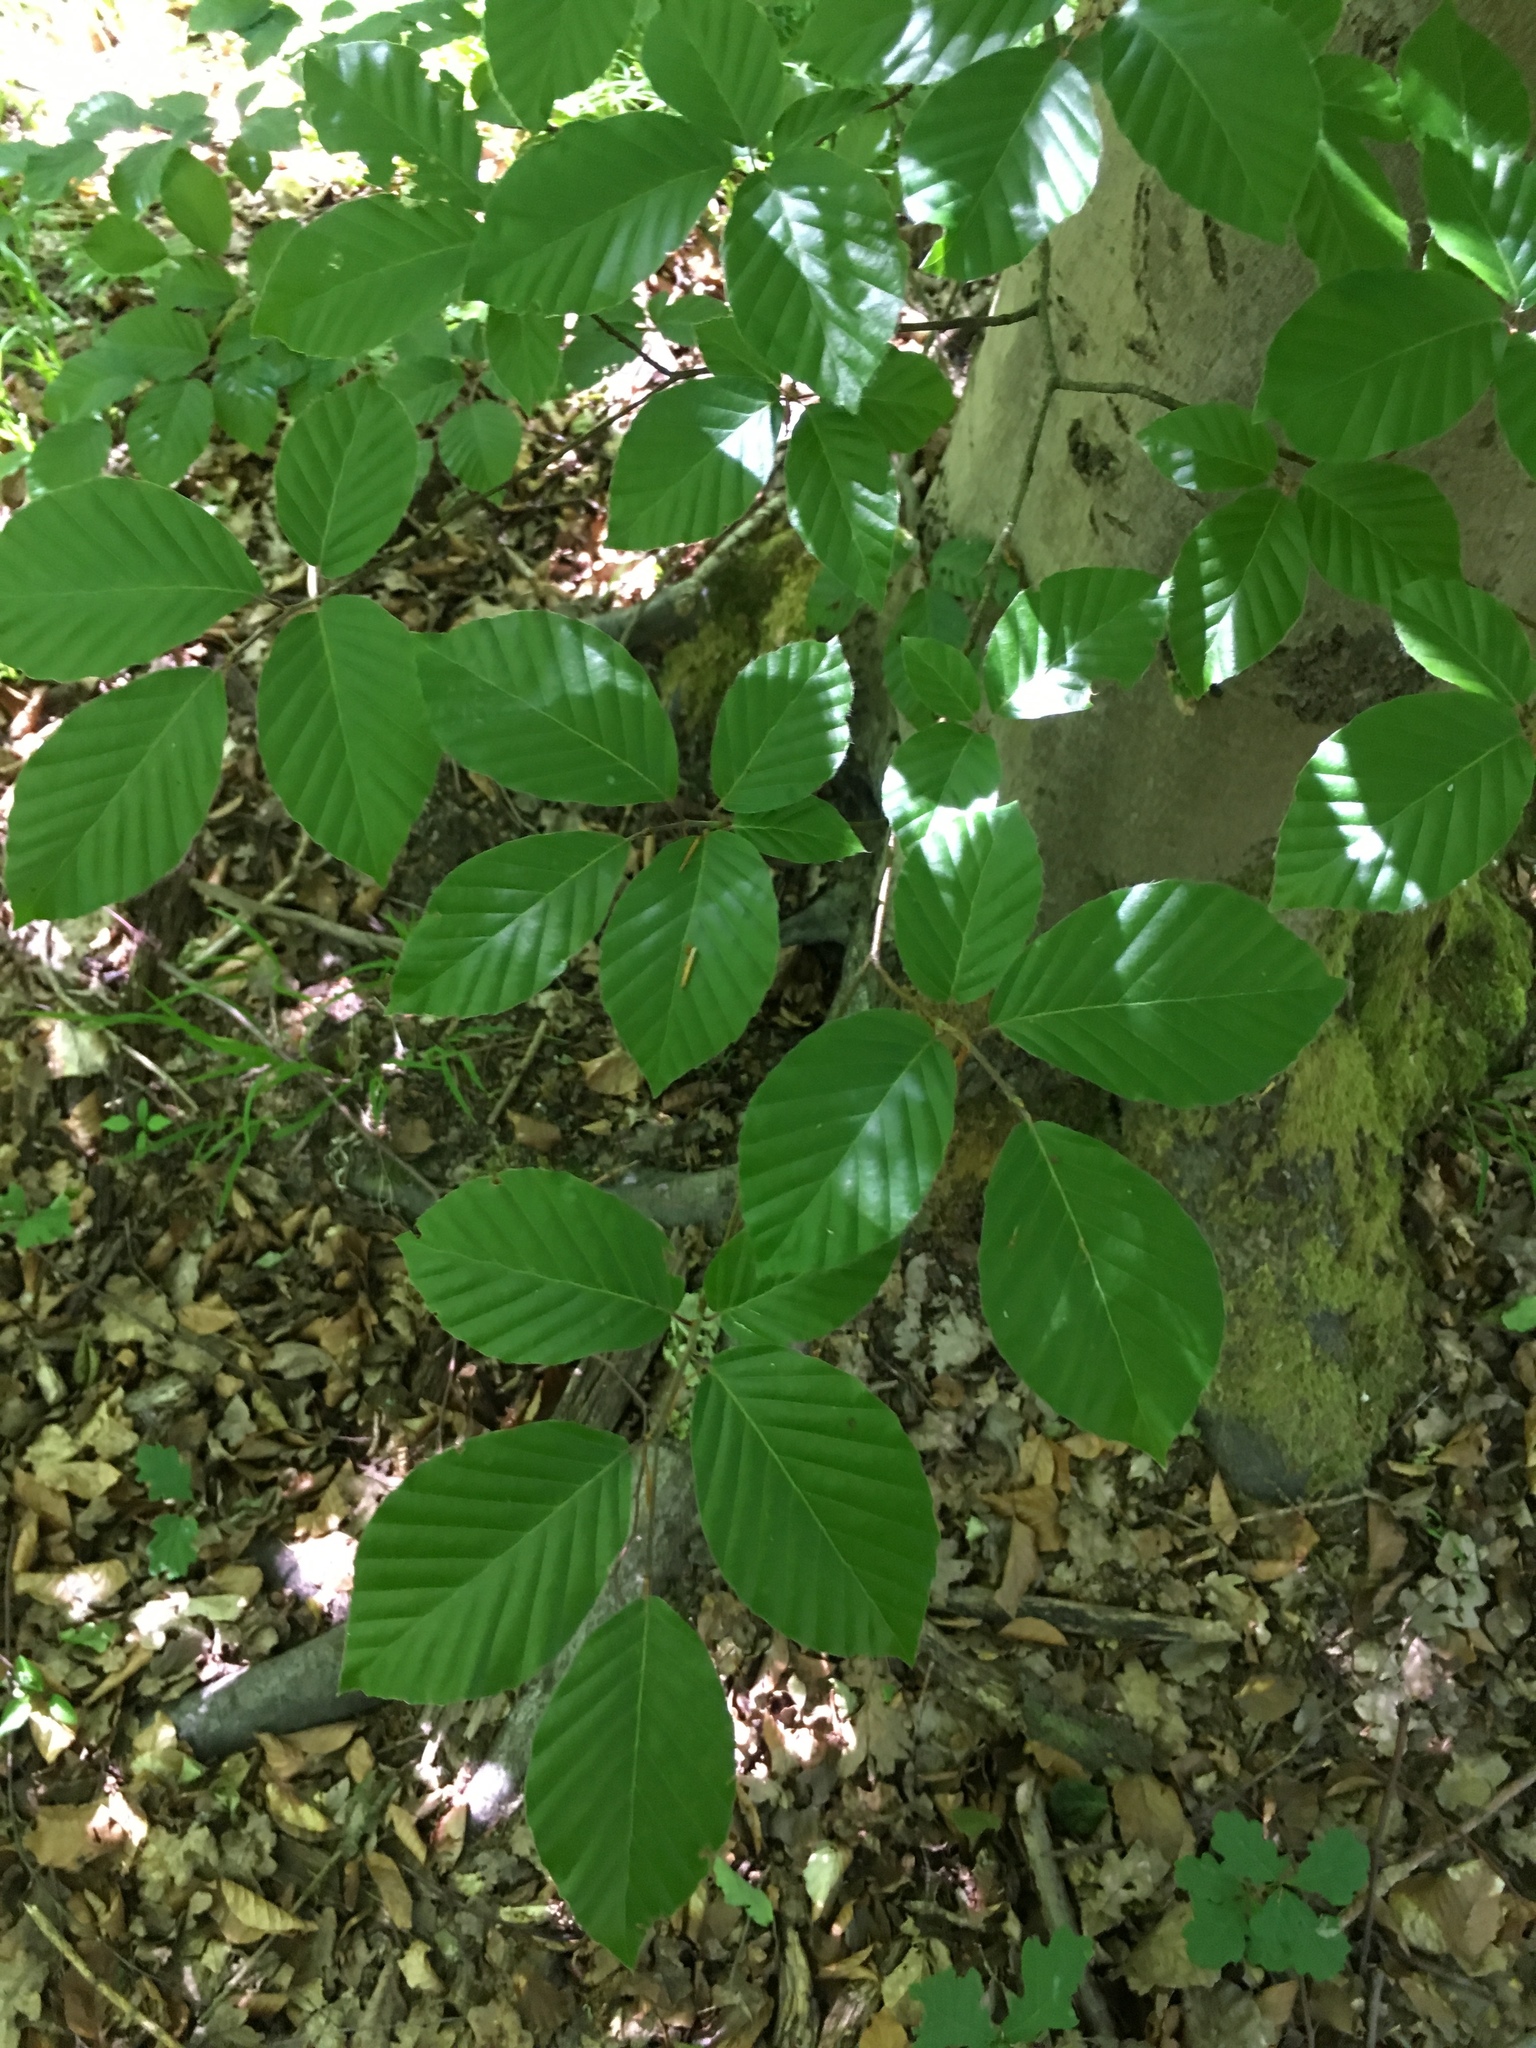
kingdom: Plantae
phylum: Tracheophyta
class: Magnoliopsida
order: Fagales
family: Fagaceae
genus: Fagus
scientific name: Fagus sylvatica
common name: Beech
